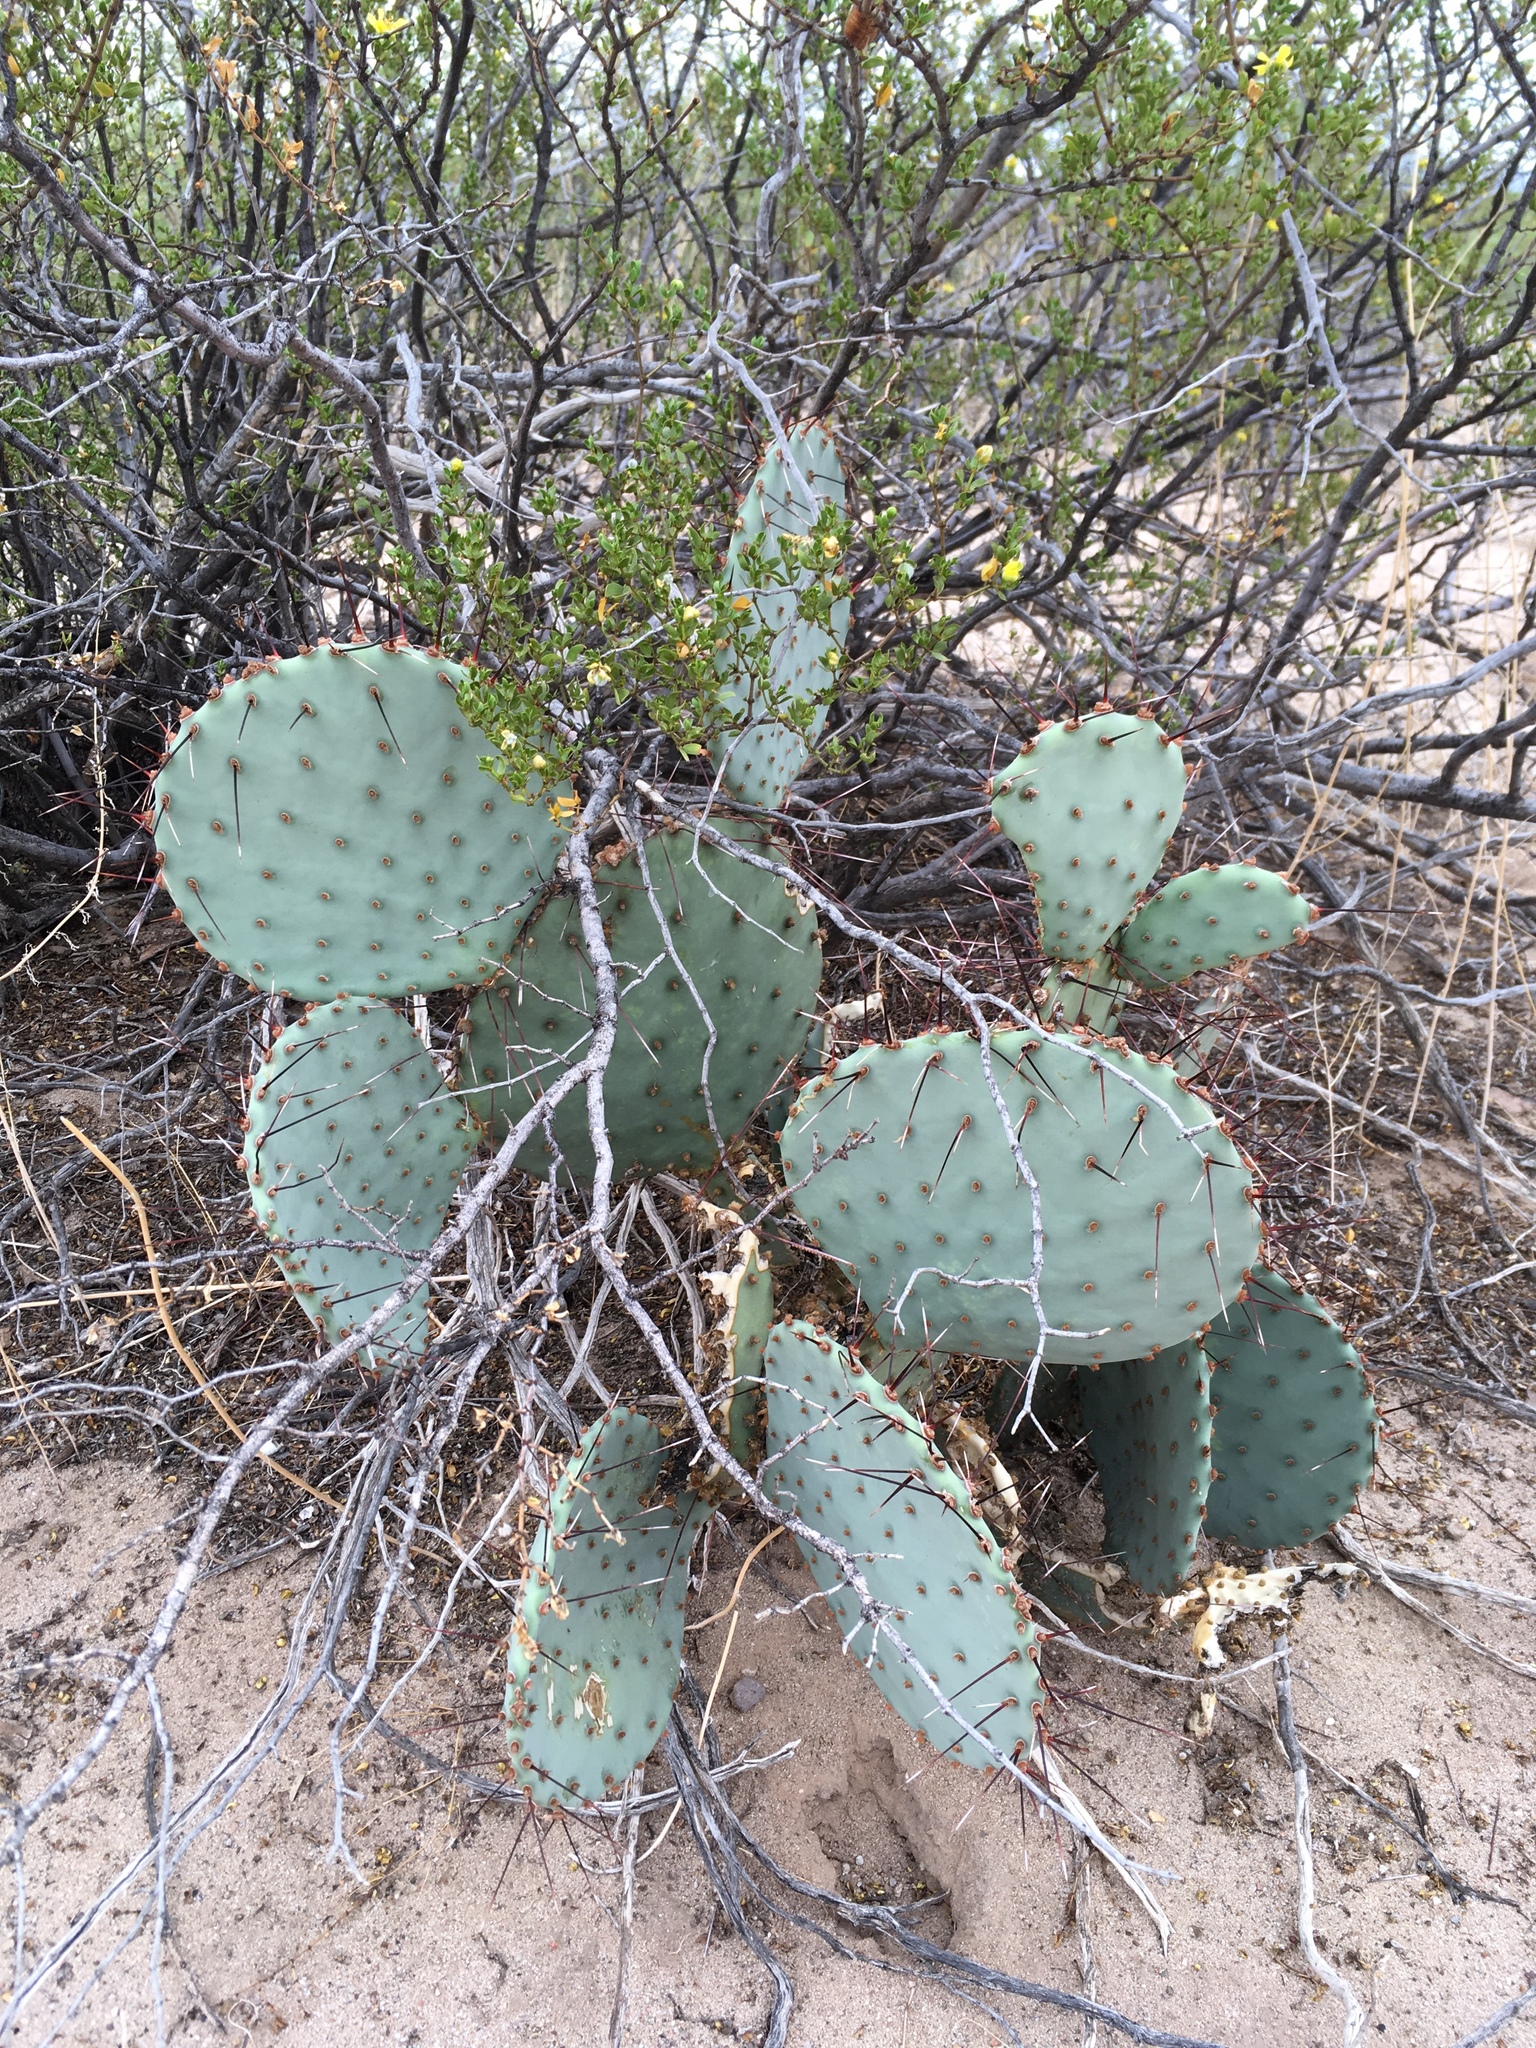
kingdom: Plantae
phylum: Tracheophyta
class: Magnoliopsida
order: Caryophyllales
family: Cactaceae
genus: Opuntia
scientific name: Opuntia macrocentra
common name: Purple prickly-pear
